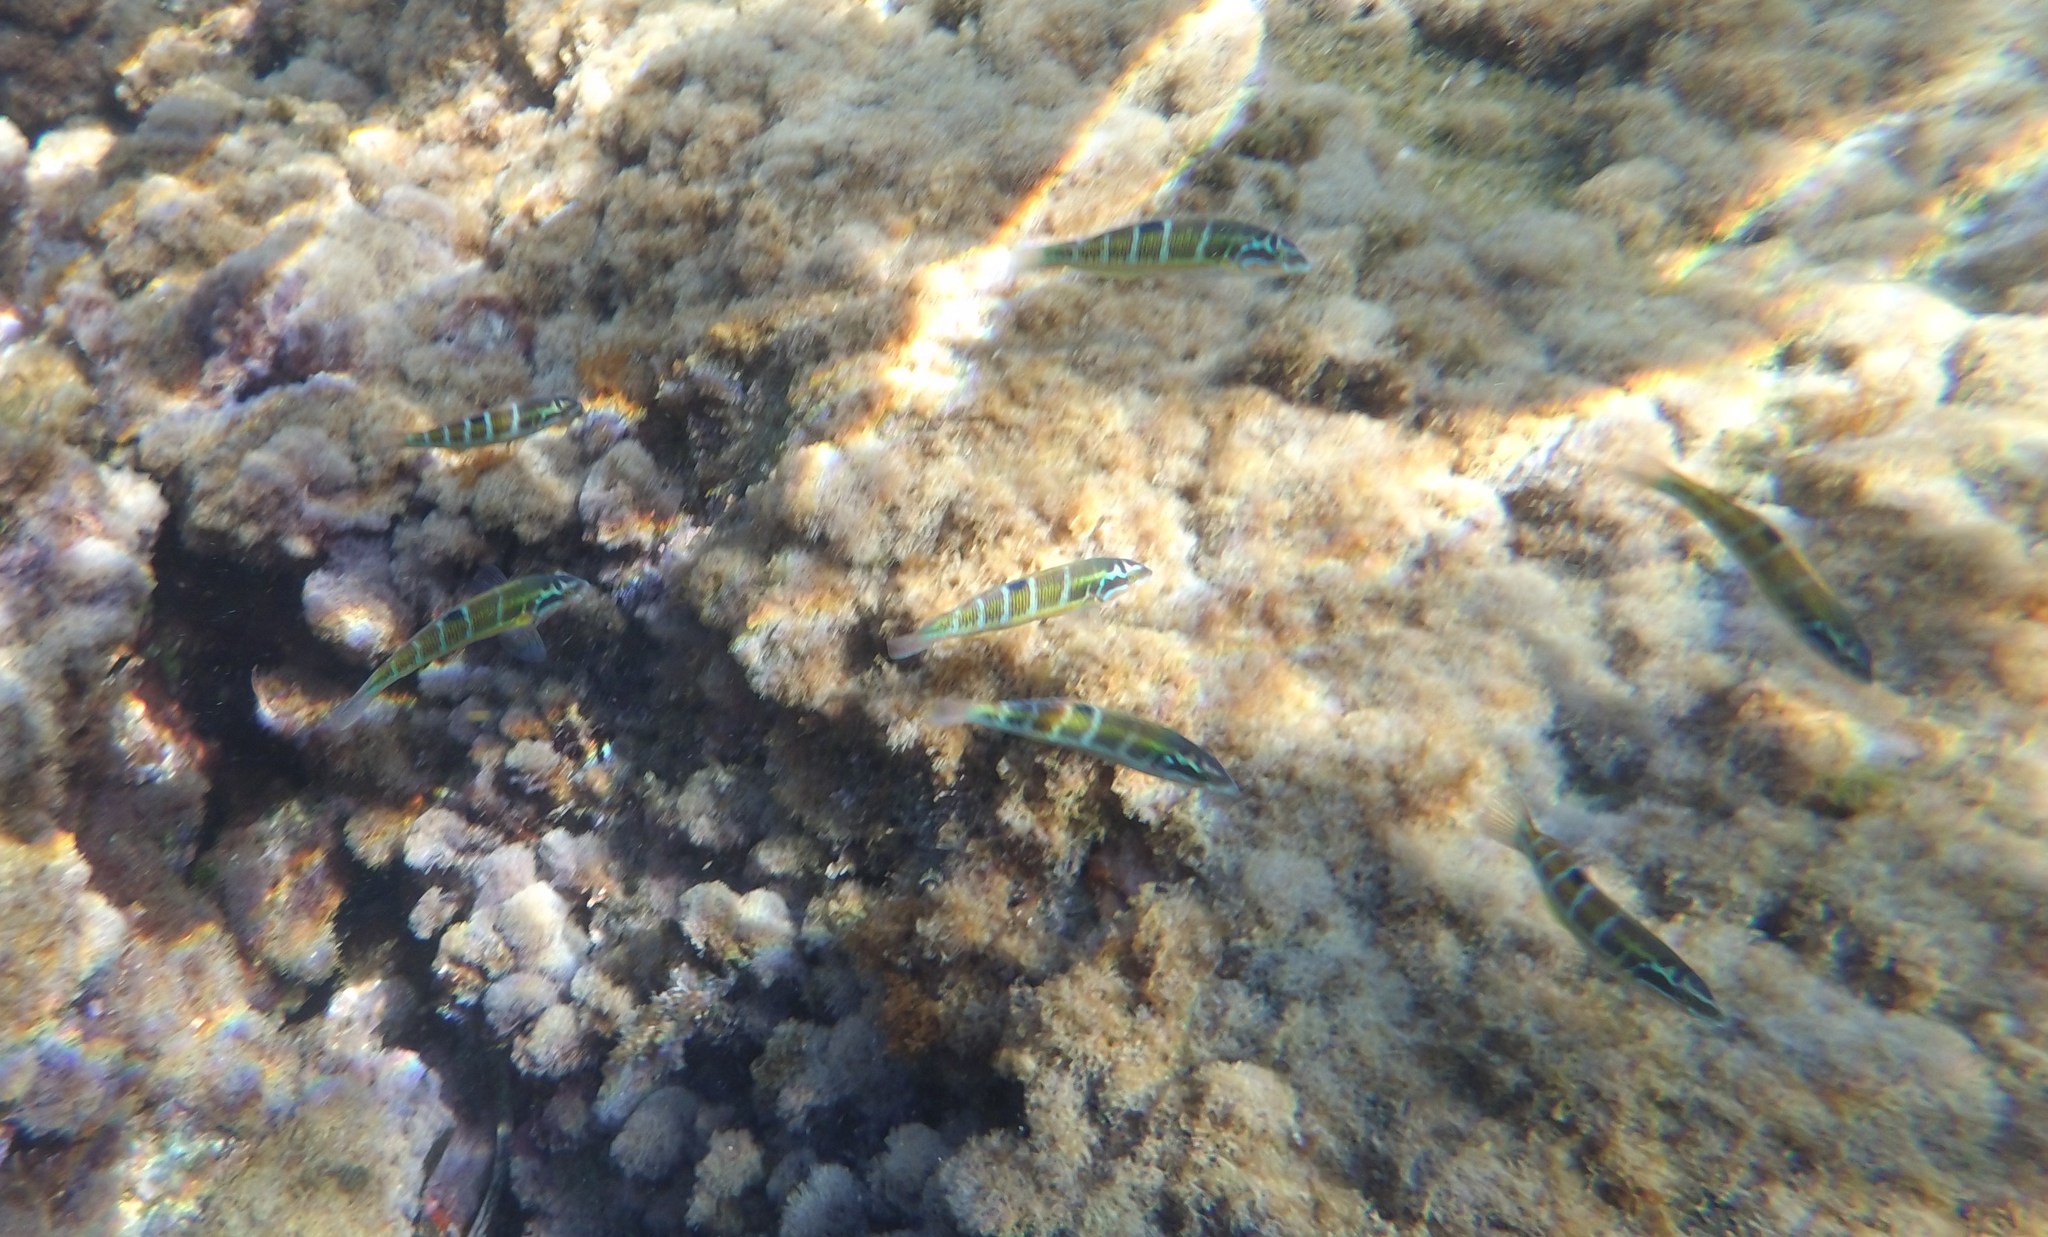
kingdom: Animalia
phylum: Chordata
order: Perciformes
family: Labridae
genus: Thalassoma
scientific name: Thalassoma pavo
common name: Ornate wrasse
